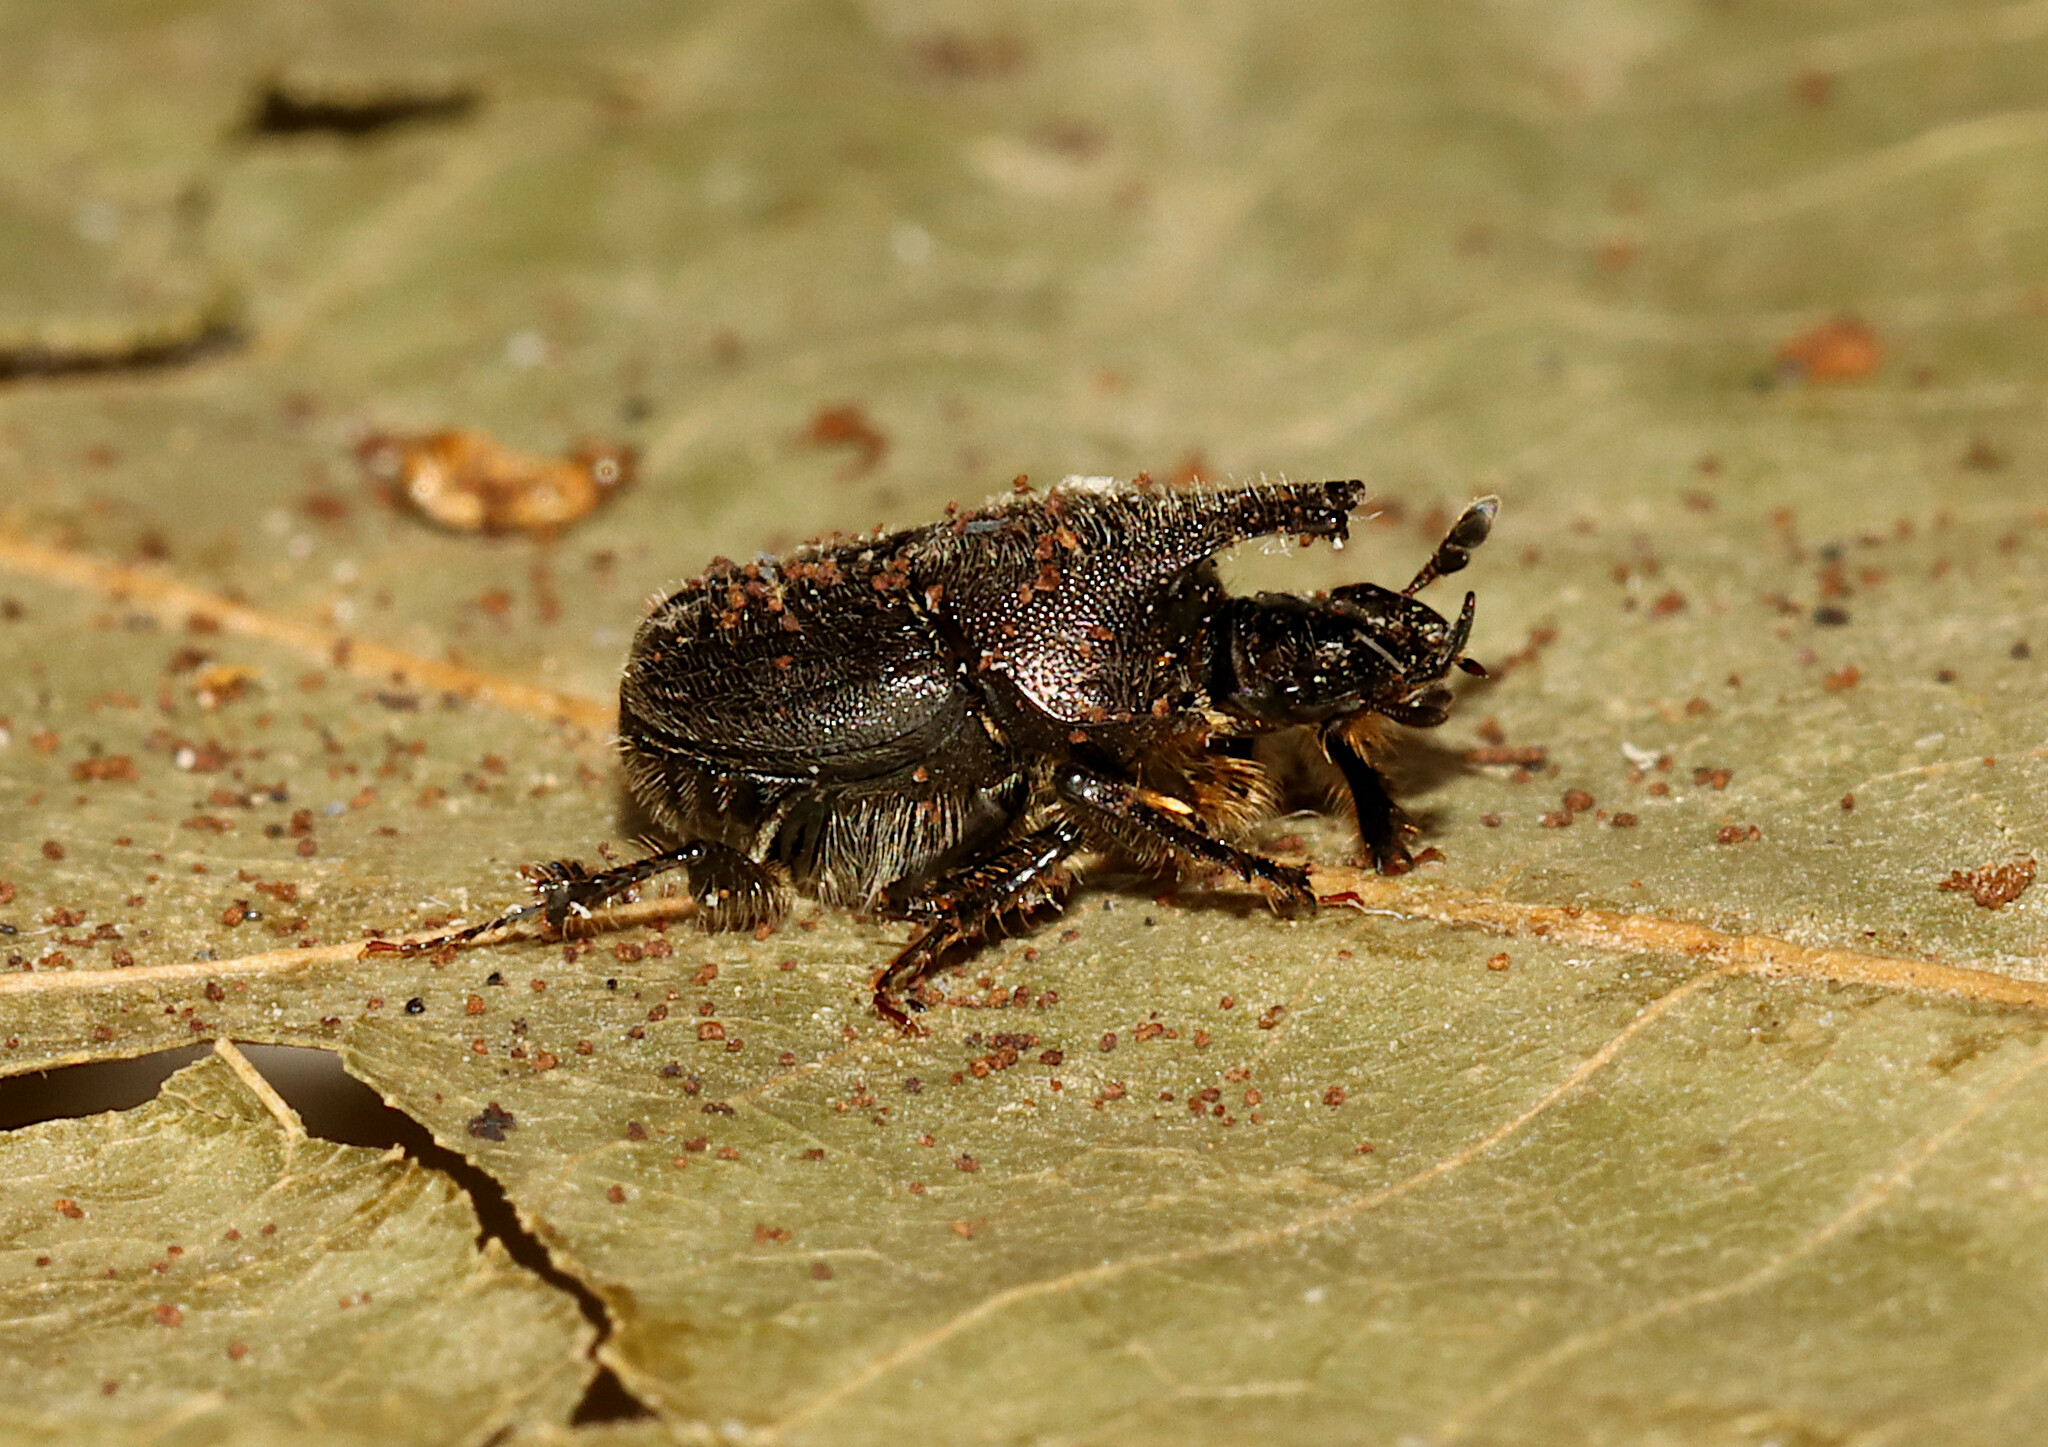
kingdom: Animalia
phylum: Arthropoda
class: Insecta
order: Coleoptera
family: Scarabaeidae
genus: Onthophagus
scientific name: Onthophagus hecate
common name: Scooped scarab
